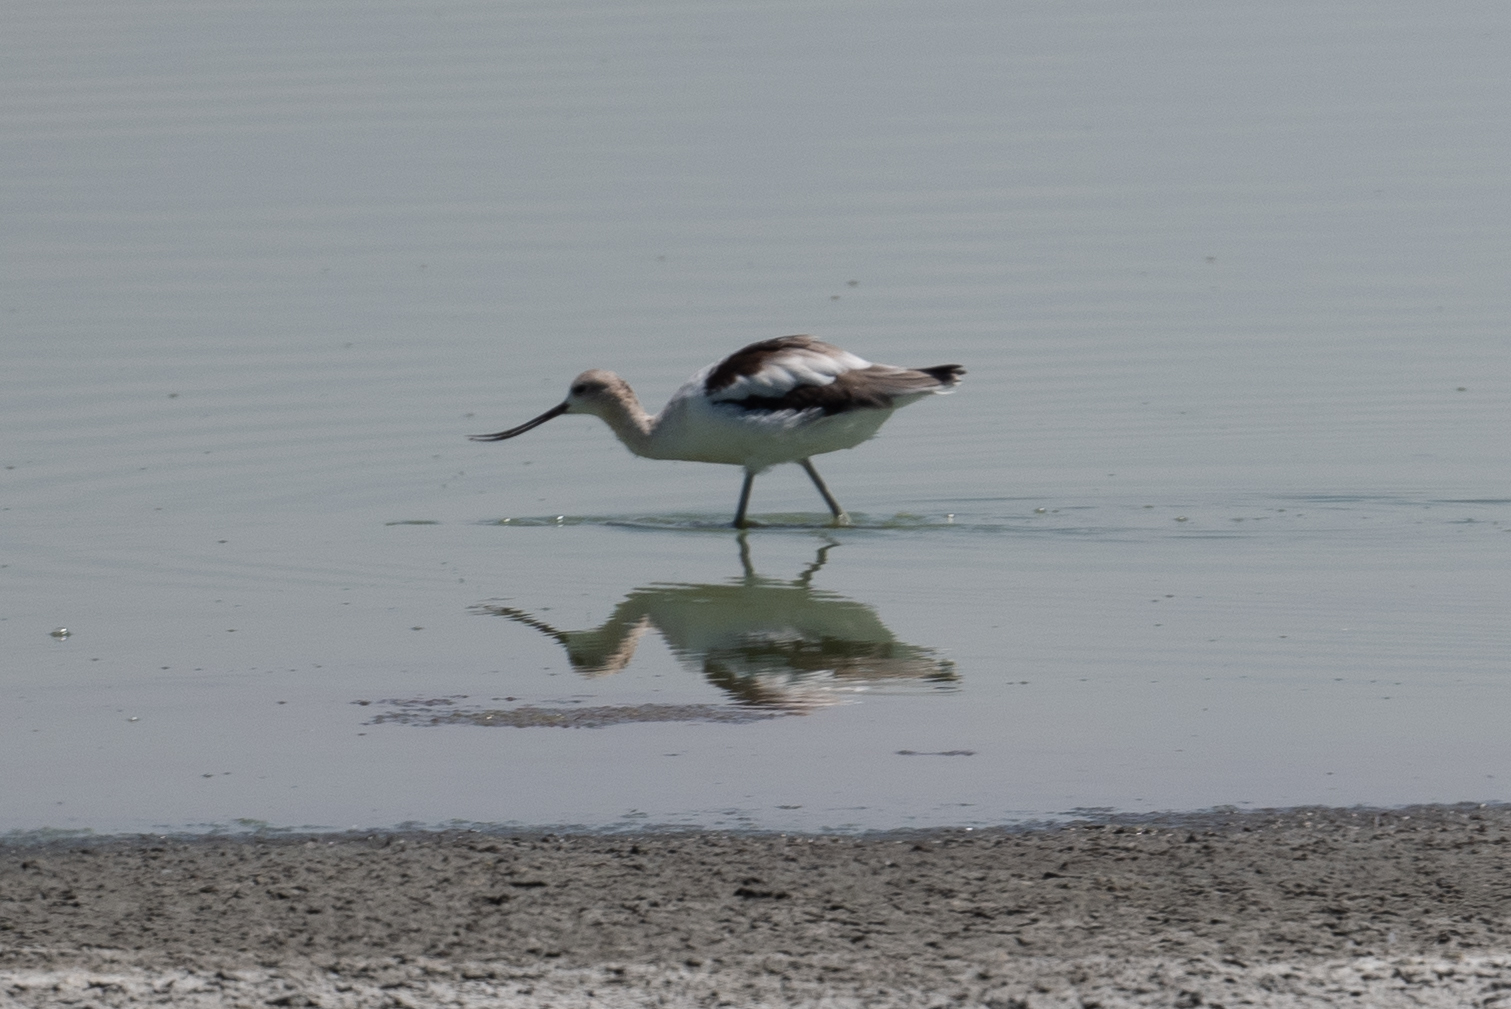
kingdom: Animalia
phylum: Chordata
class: Aves
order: Charadriiformes
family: Recurvirostridae
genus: Recurvirostra
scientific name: Recurvirostra americana
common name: American avocet
